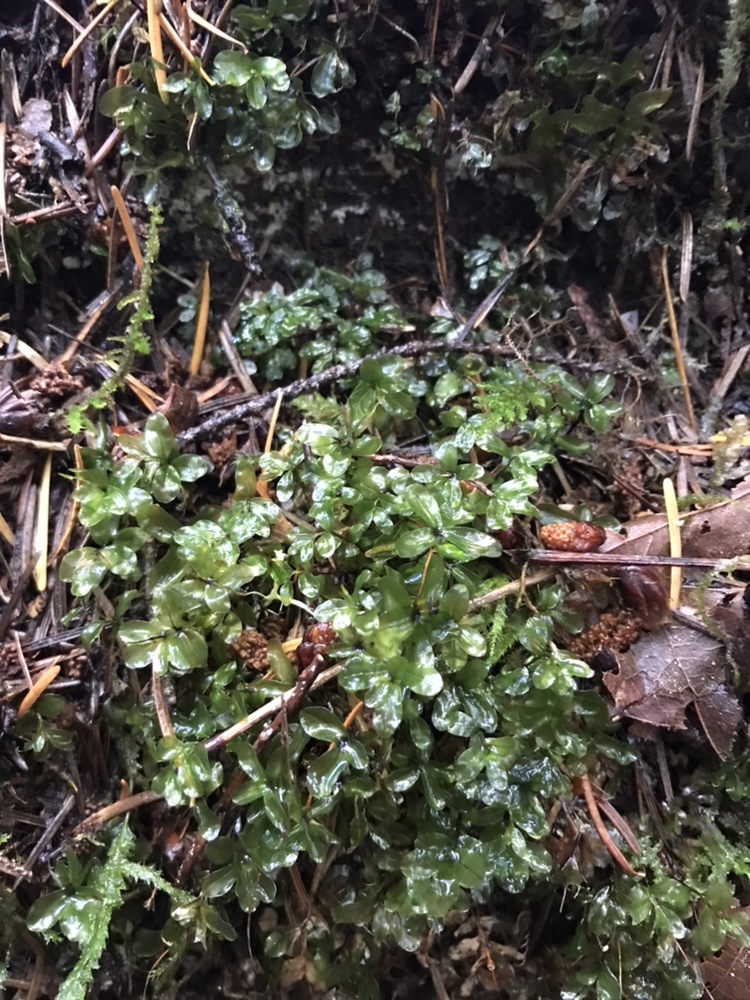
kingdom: Plantae
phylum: Bryophyta
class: Bryopsida
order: Bryales
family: Mniaceae
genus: Rhizomnium
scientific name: Rhizomnium glabrescens
